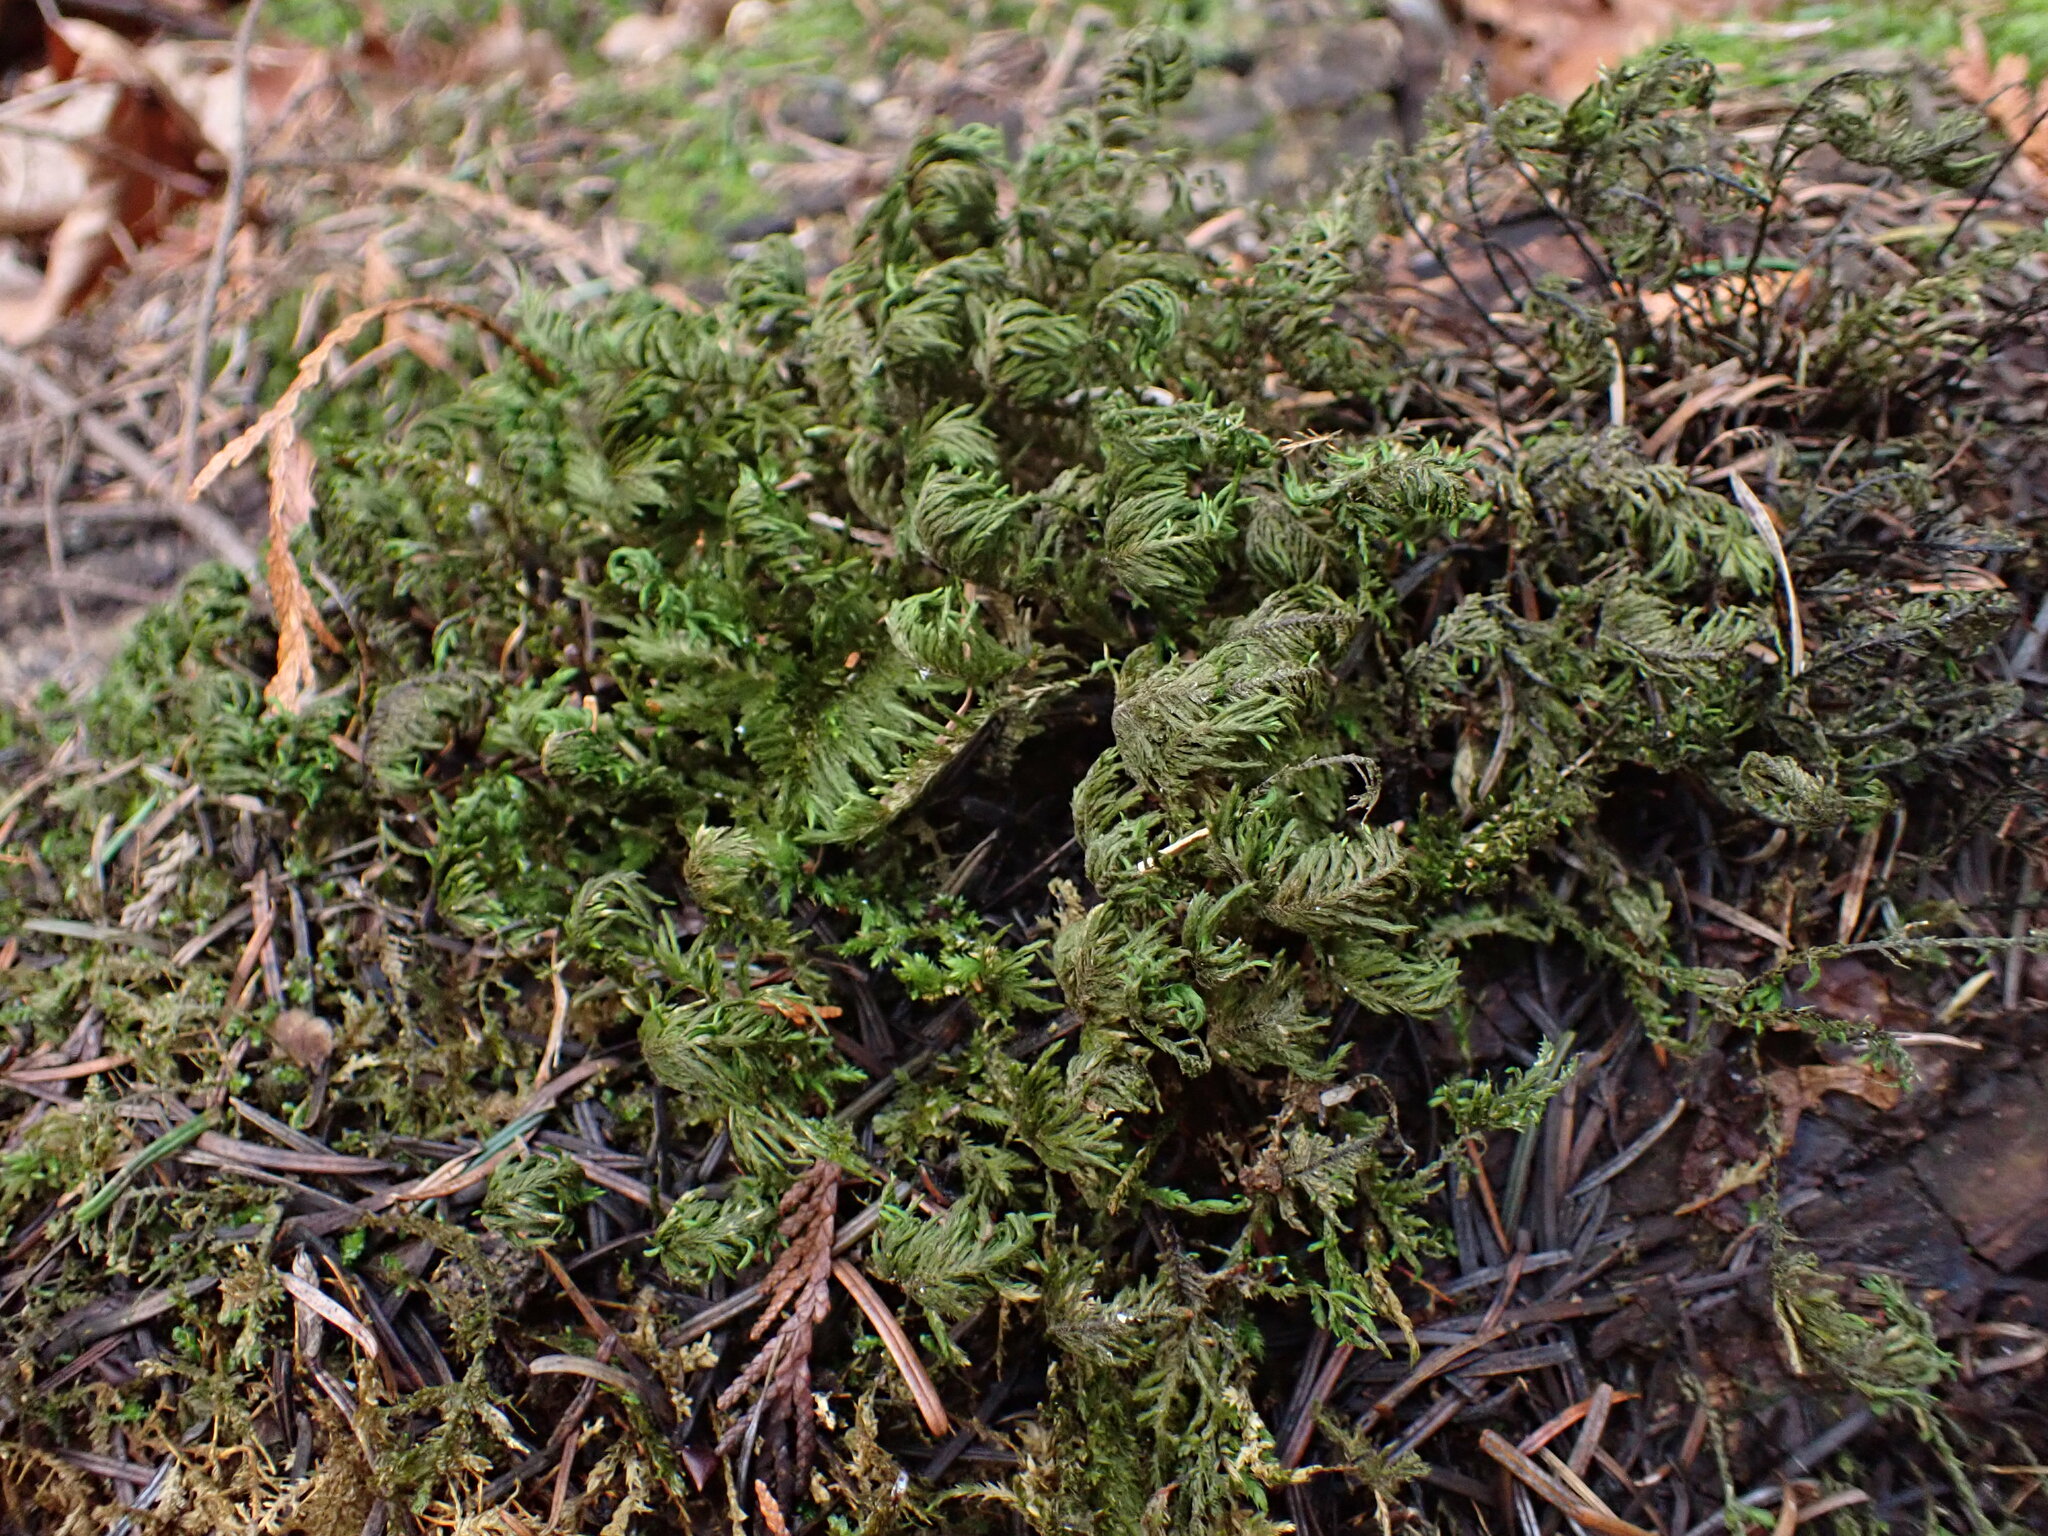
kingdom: Plantae
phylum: Bryophyta
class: Bryopsida
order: Hypnales
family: Cryphaeaceae
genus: Dendroalsia
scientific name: Dendroalsia abietina
